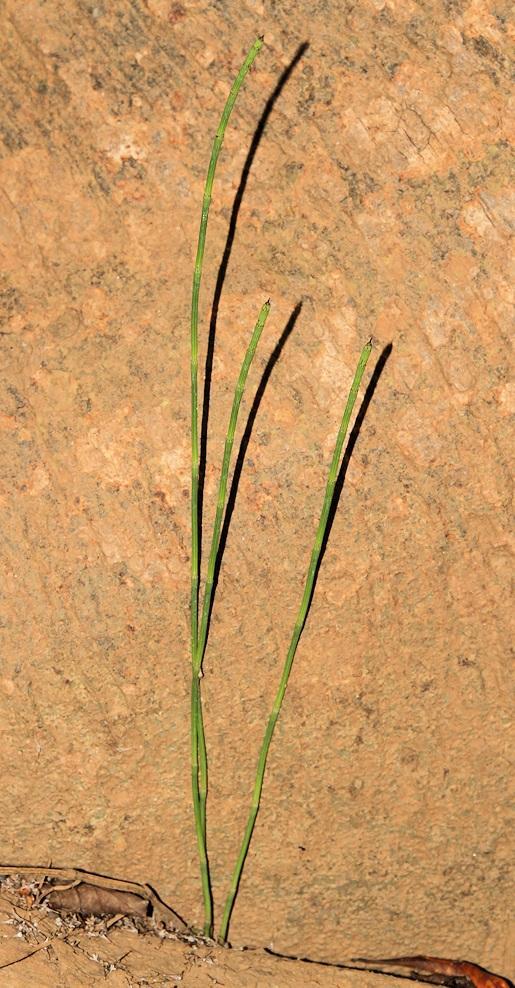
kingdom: Plantae
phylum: Tracheophyta
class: Polypodiopsida
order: Equisetales
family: Equisetaceae
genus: Equisetum
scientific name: Equisetum ramosissimum
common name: Branched horsetail
